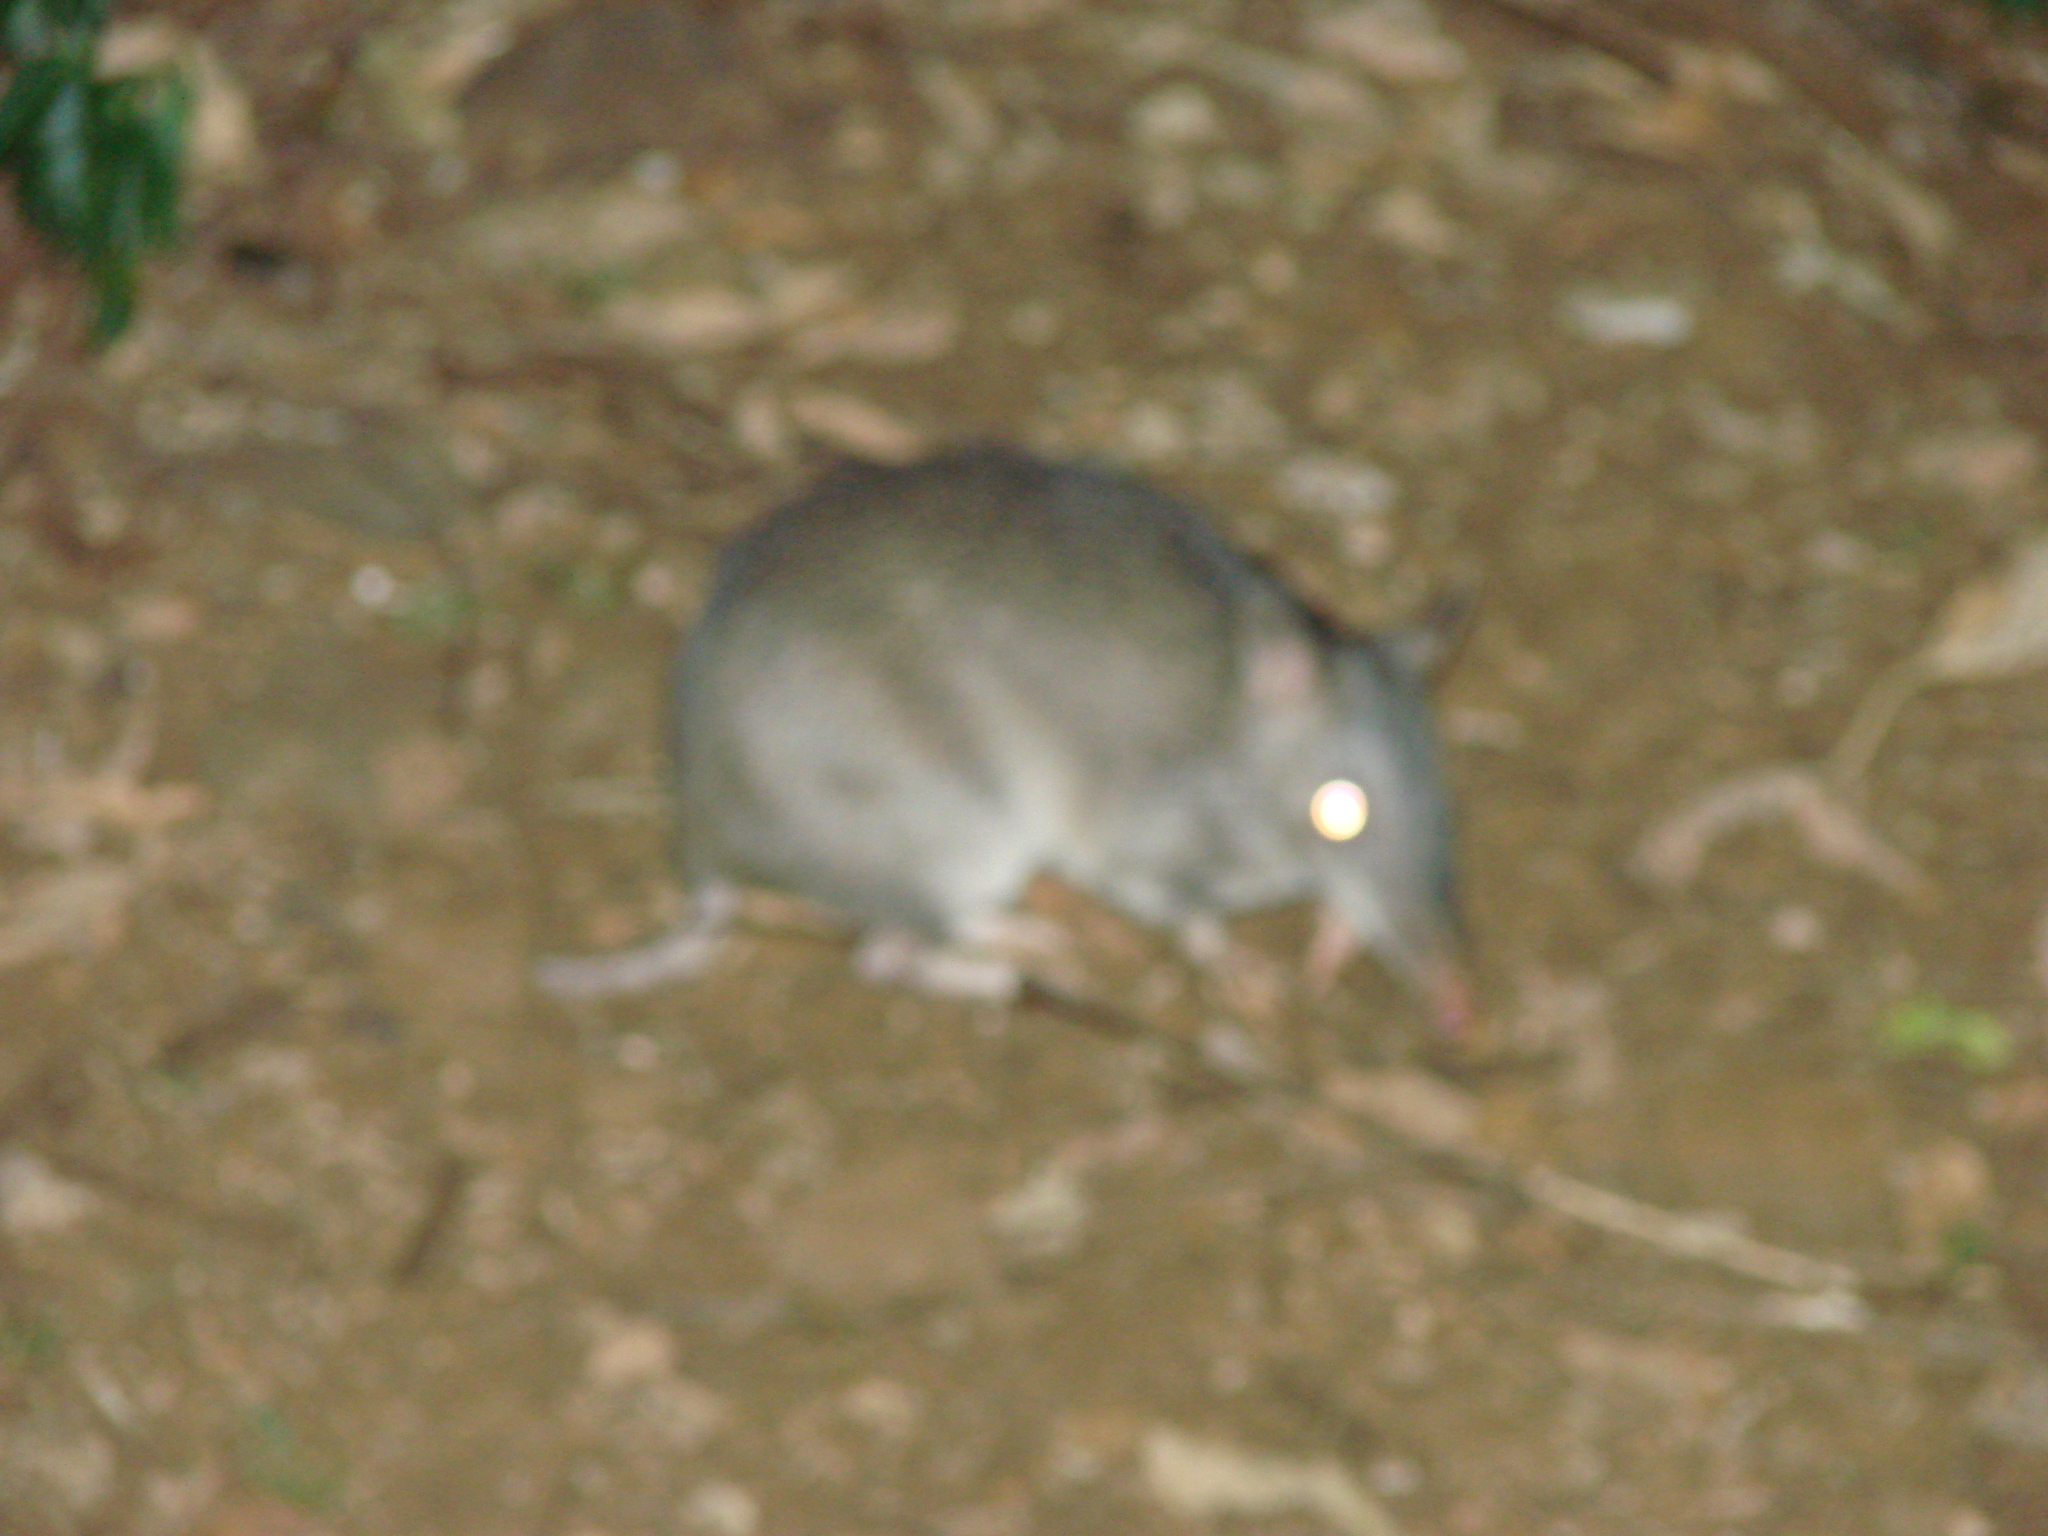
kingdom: Animalia
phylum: Chordata
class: Mammalia
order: Peramelemorphia
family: Peramelidae
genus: Perameles
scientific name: Perameles pallescens
